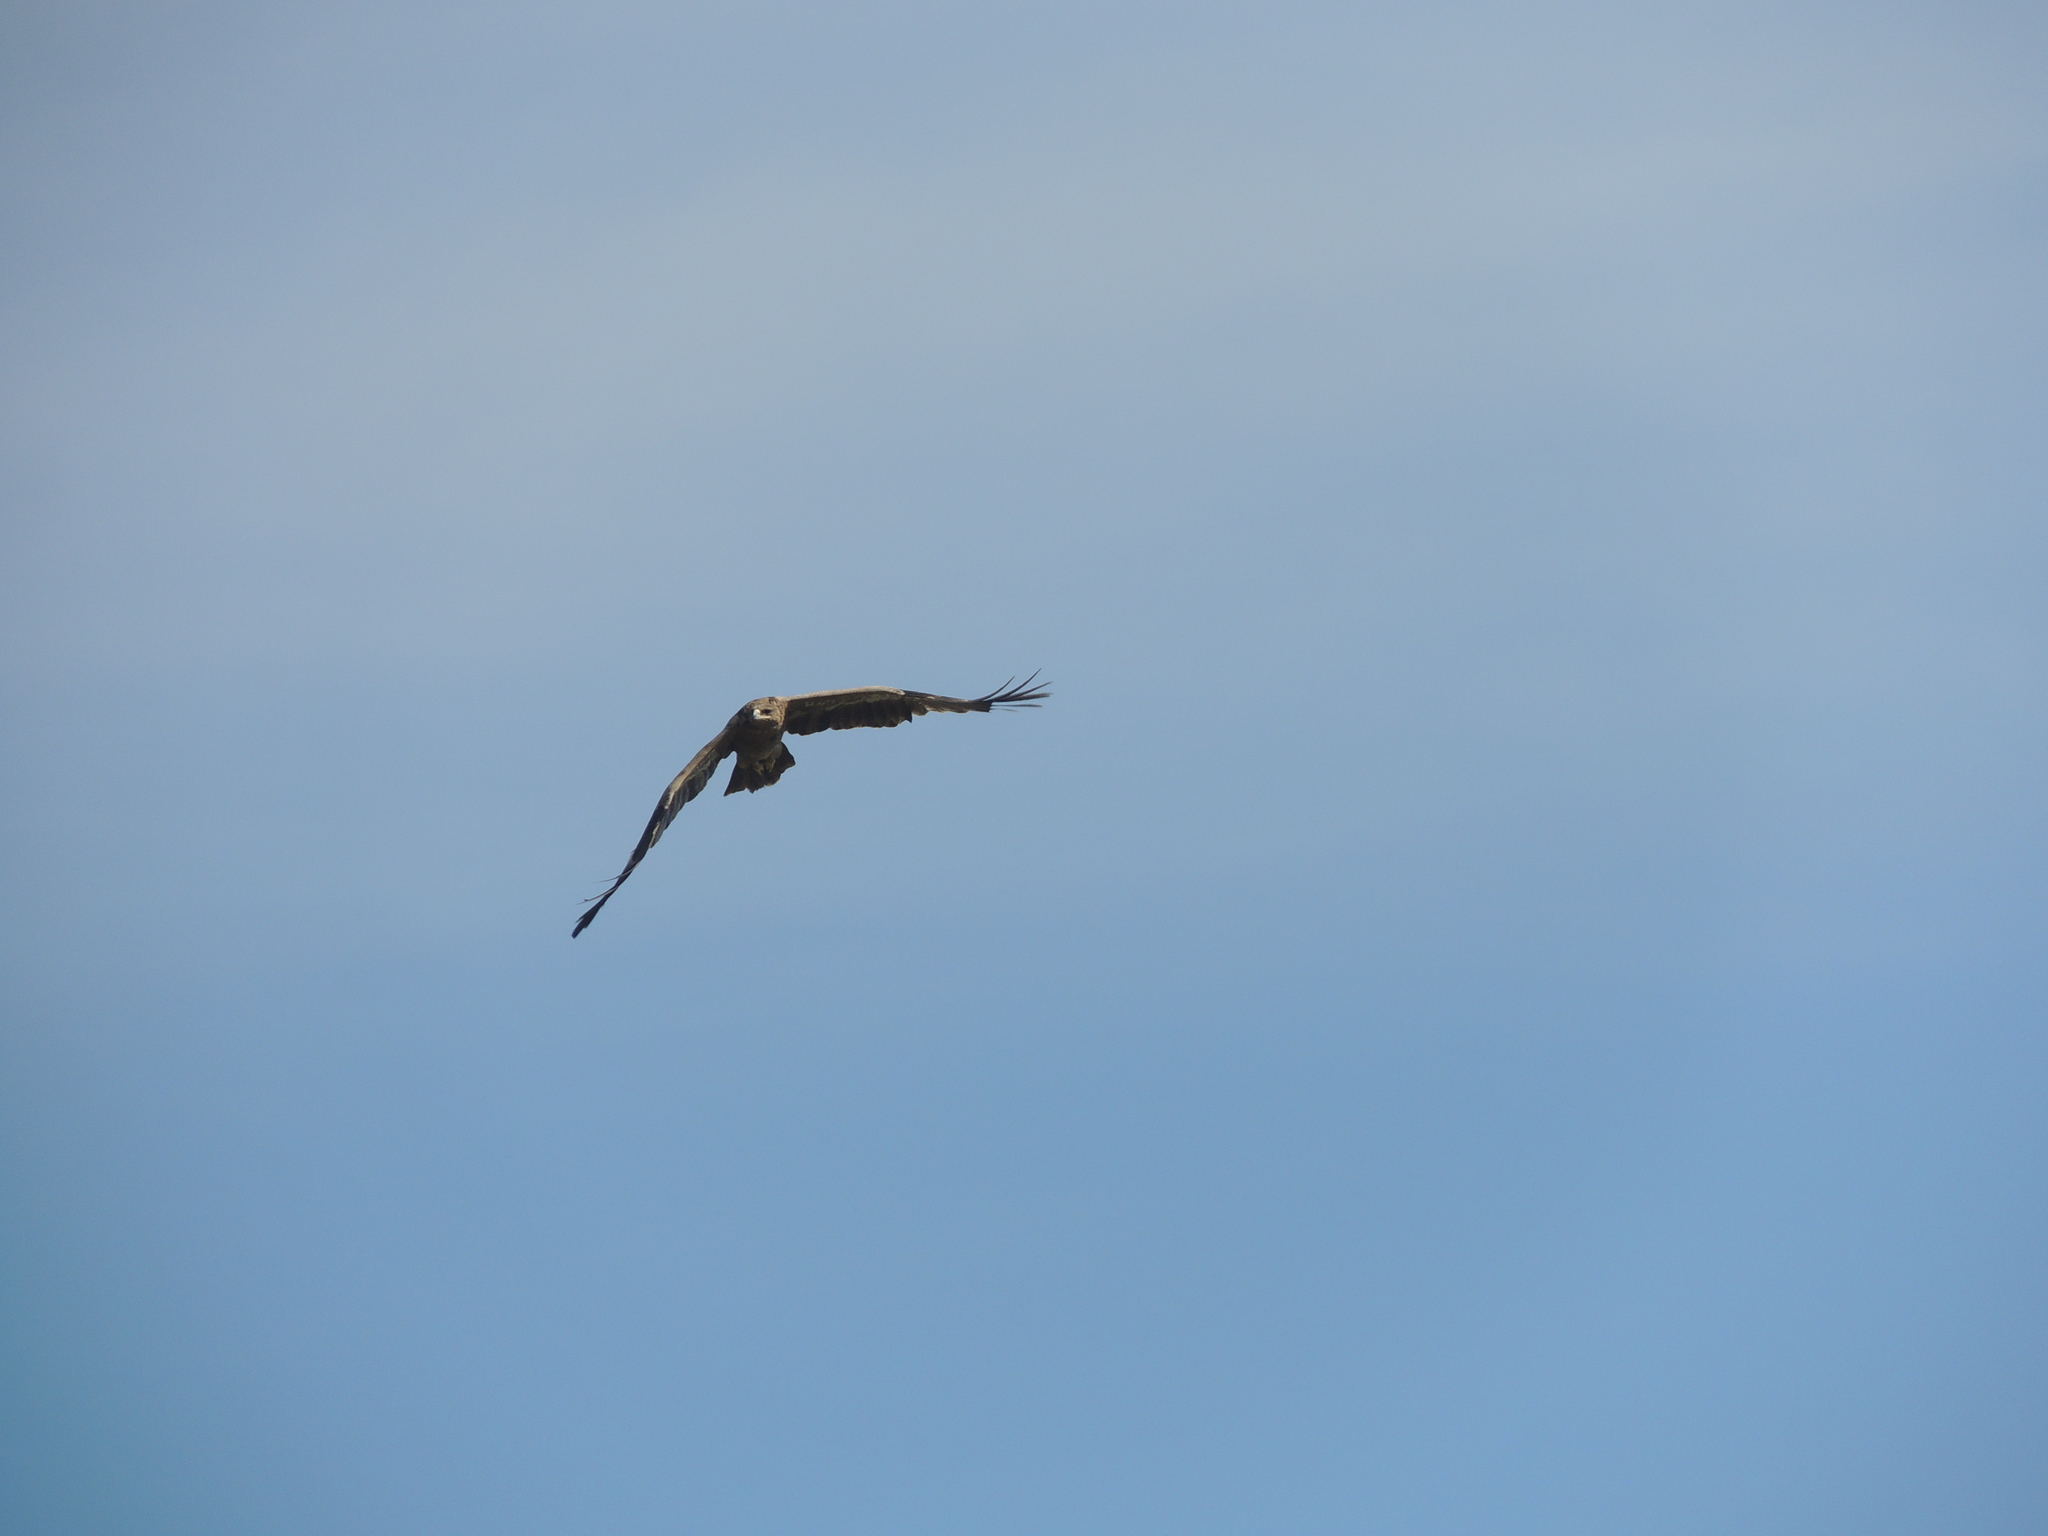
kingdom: Animalia
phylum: Chordata
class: Aves
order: Accipitriformes
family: Accipitridae
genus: Aquila
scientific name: Aquila nipalensis
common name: Steppe eagle
